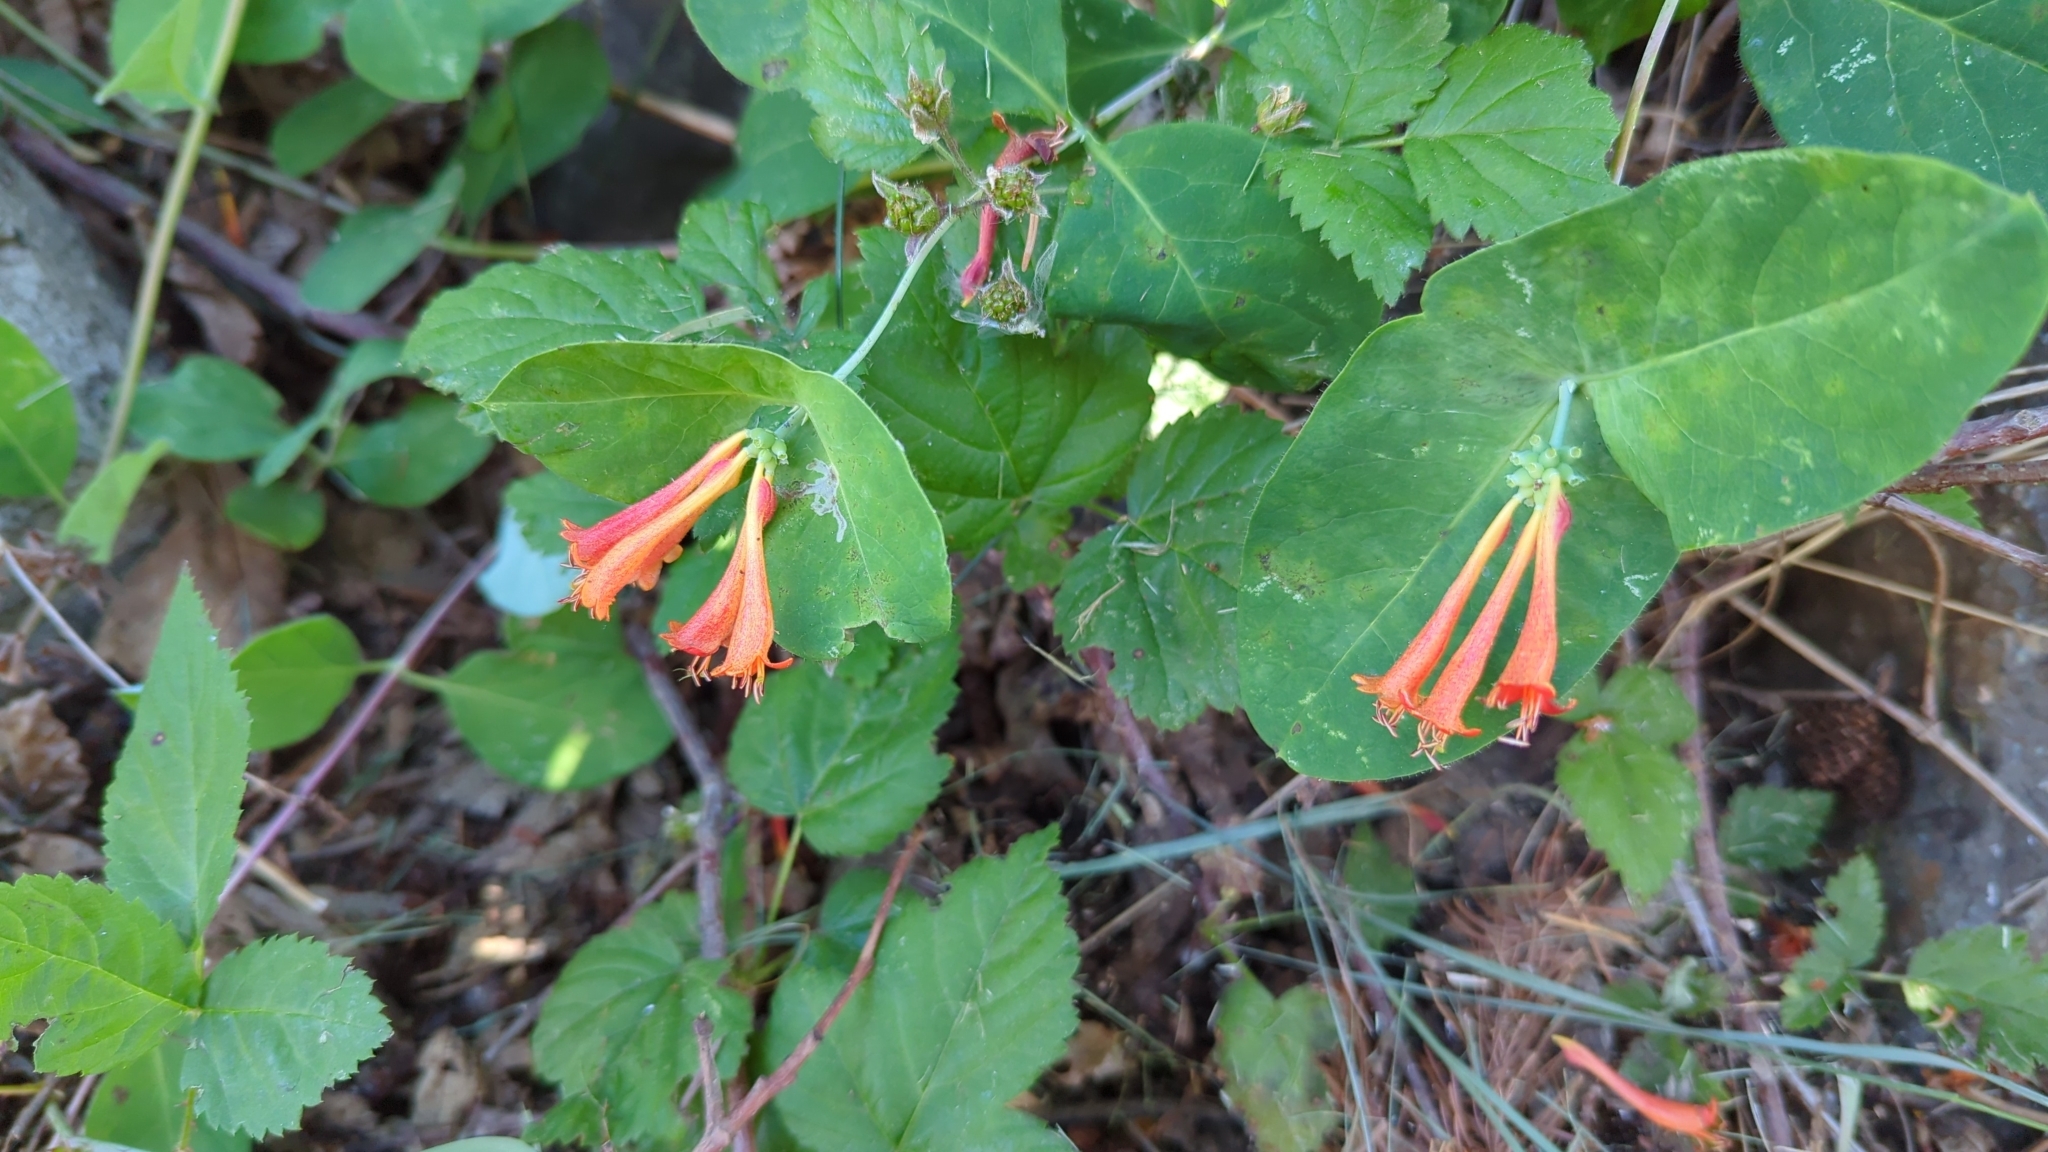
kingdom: Plantae
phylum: Tracheophyta
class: Magnoliopsida
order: Dipsacales
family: Caprifoliaceae
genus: Lonicera
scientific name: Lonicera ciliosa
